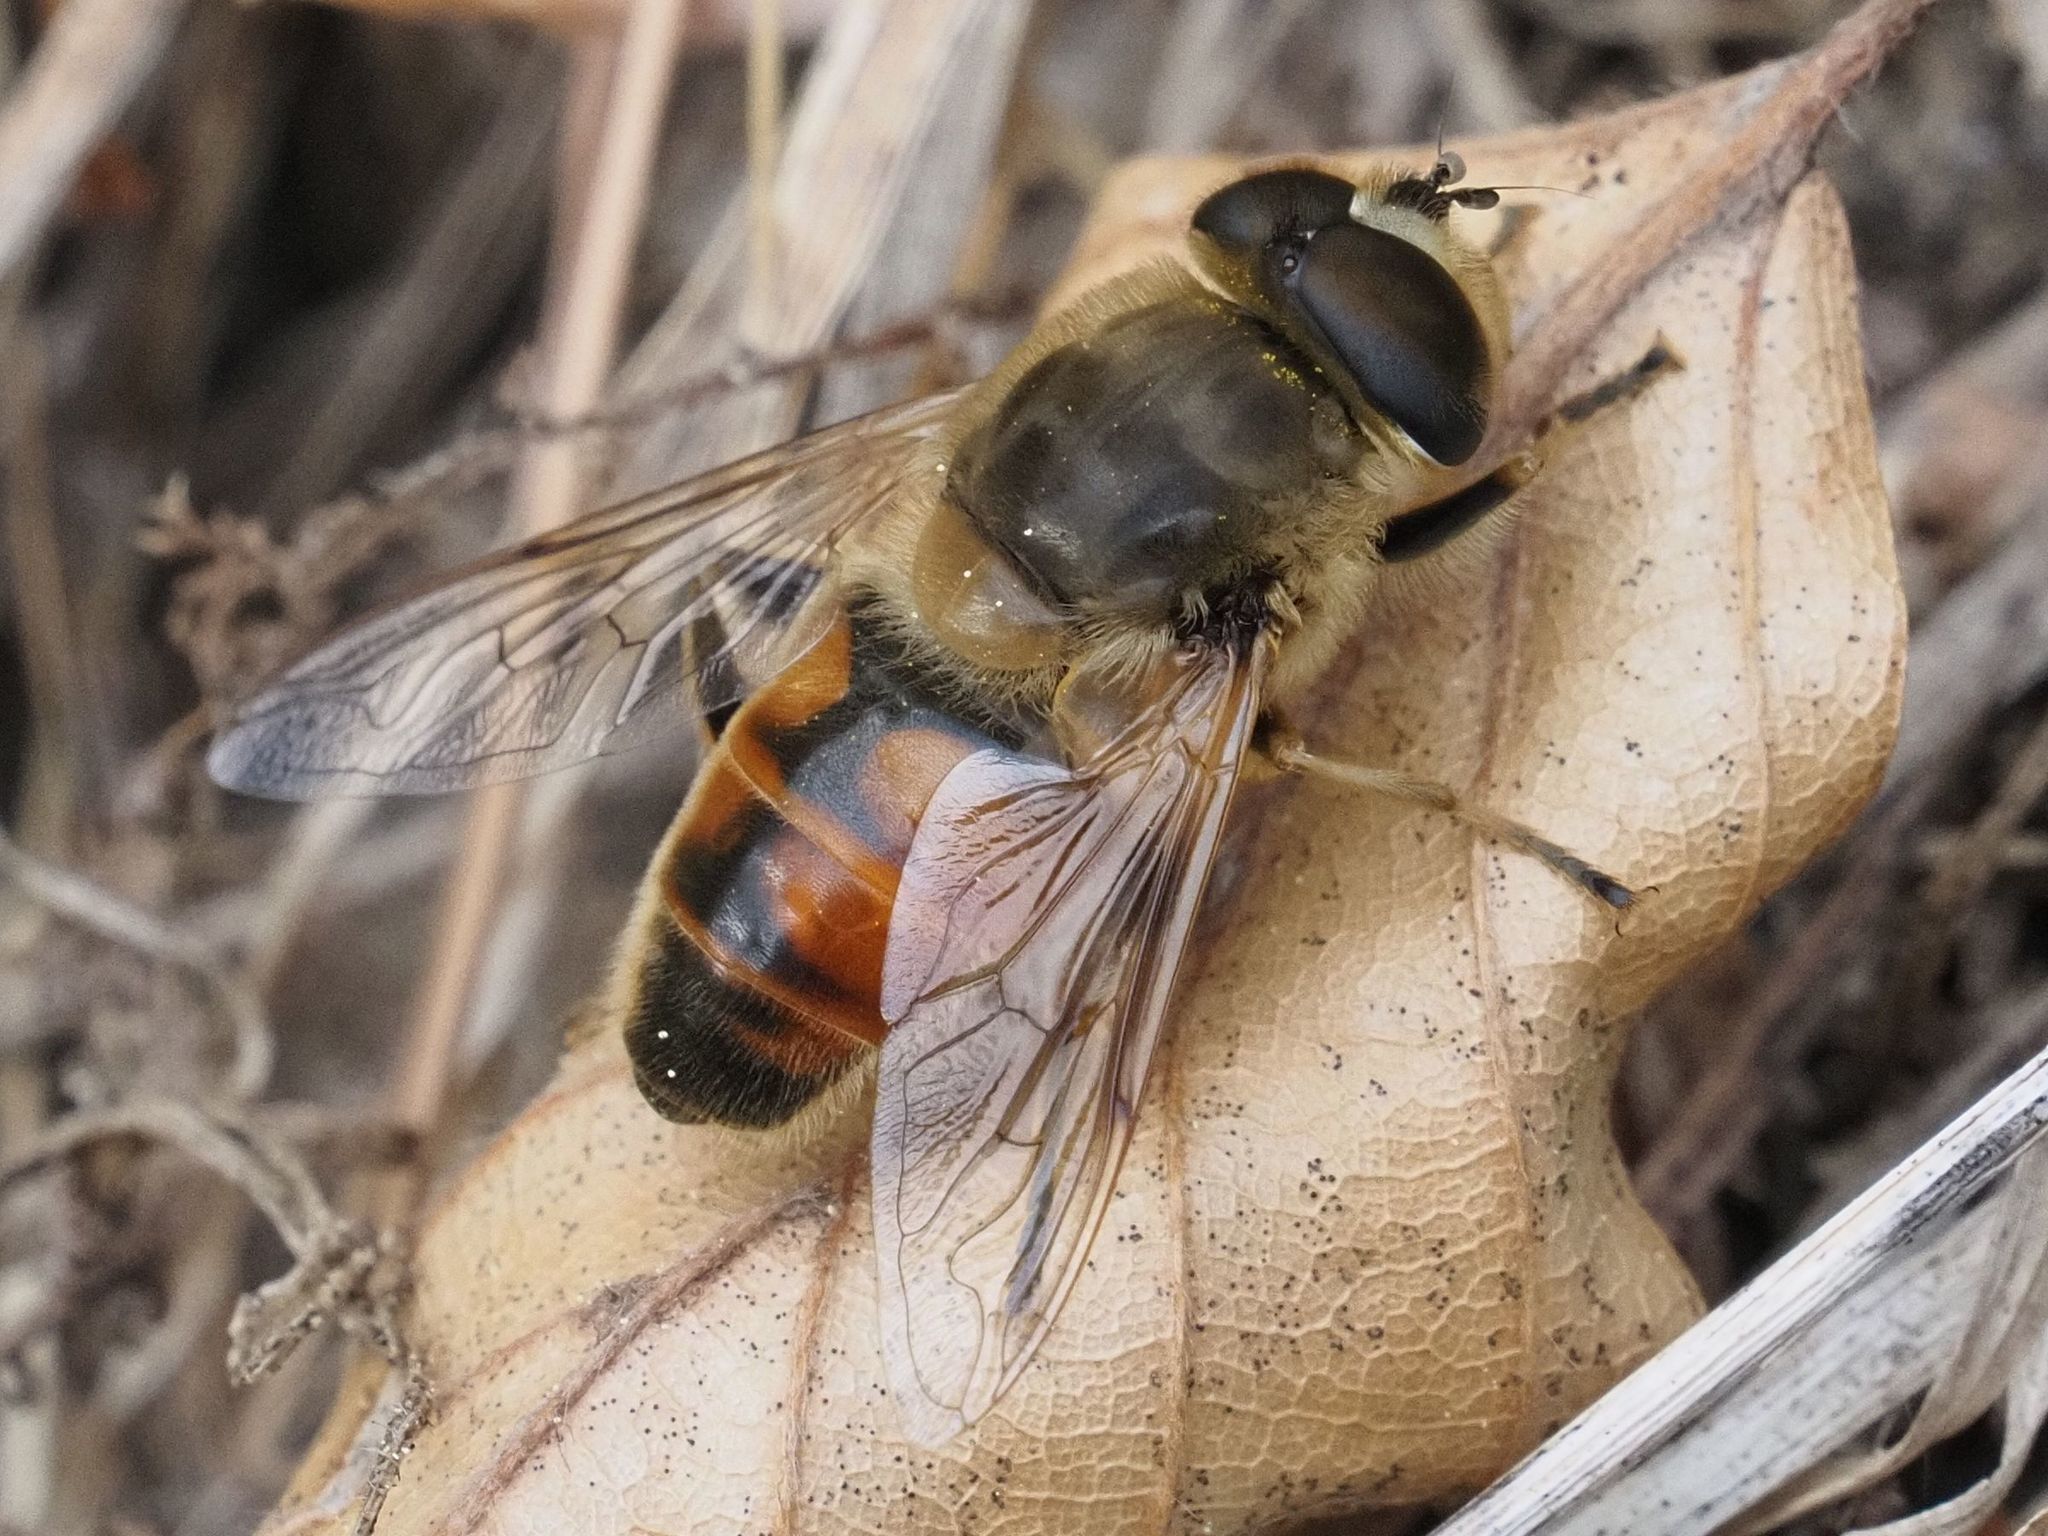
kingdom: Animalia
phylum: Arthropoda
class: Insecta
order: Diptera
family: Syrphidae
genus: Eristalis
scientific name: Eristalis tenax
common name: Drone fly
